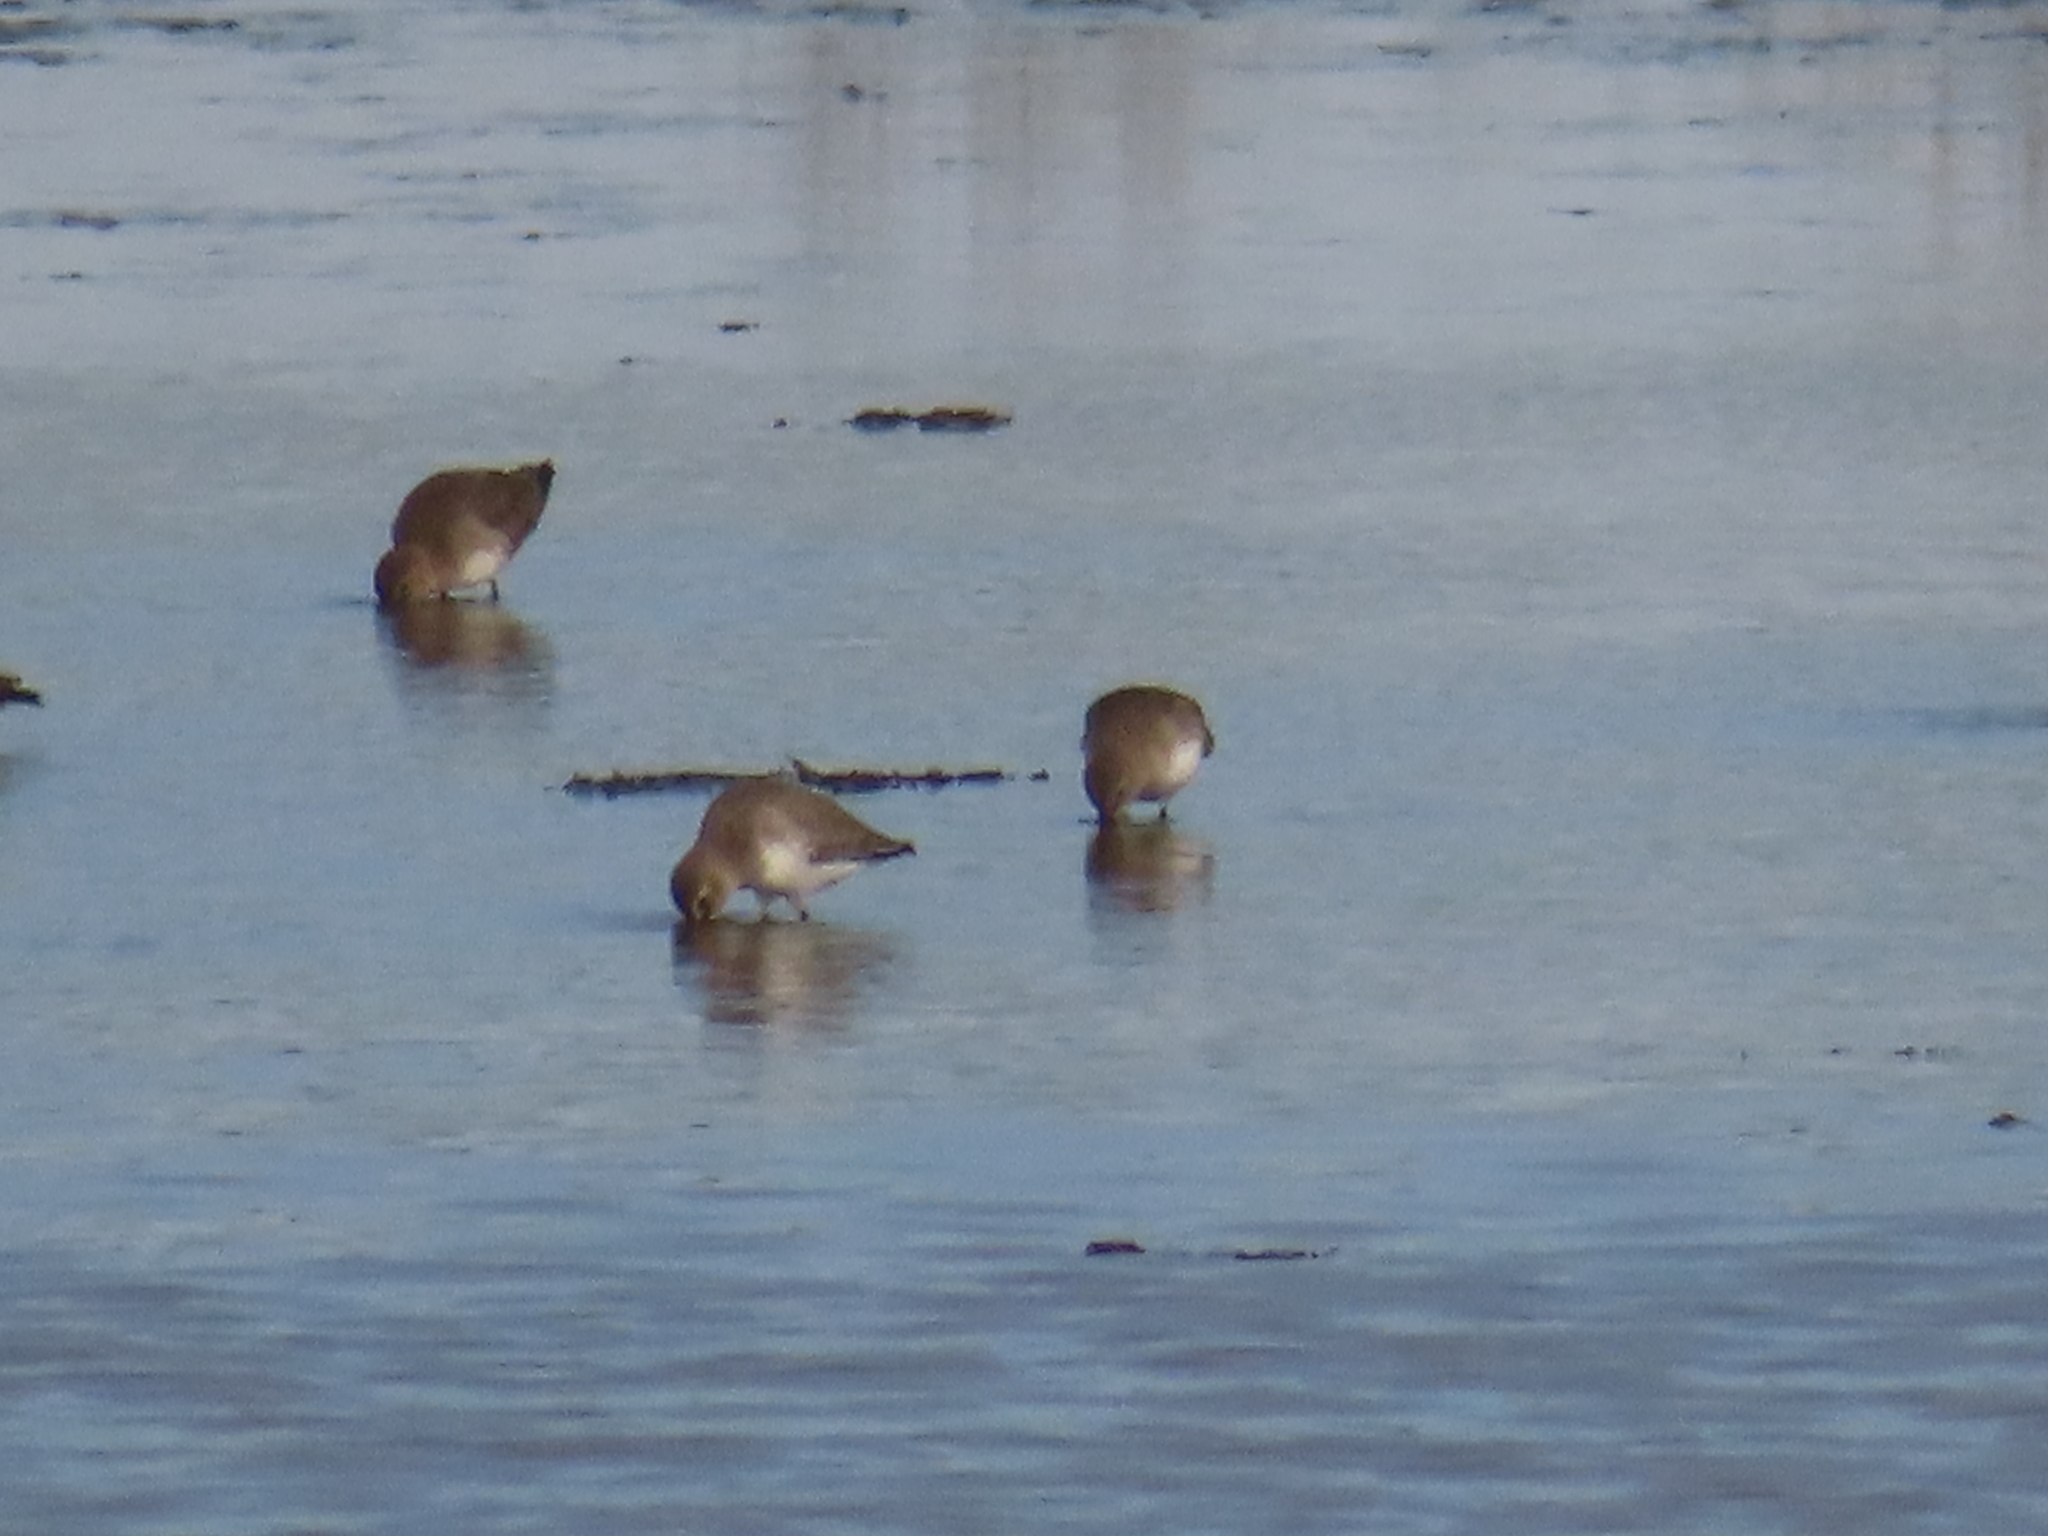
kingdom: Animalia
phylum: Chordata
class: Aves
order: Charadriiformes
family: Scolopacidae
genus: Calidris
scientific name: Calidris alpina
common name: Dunlin
